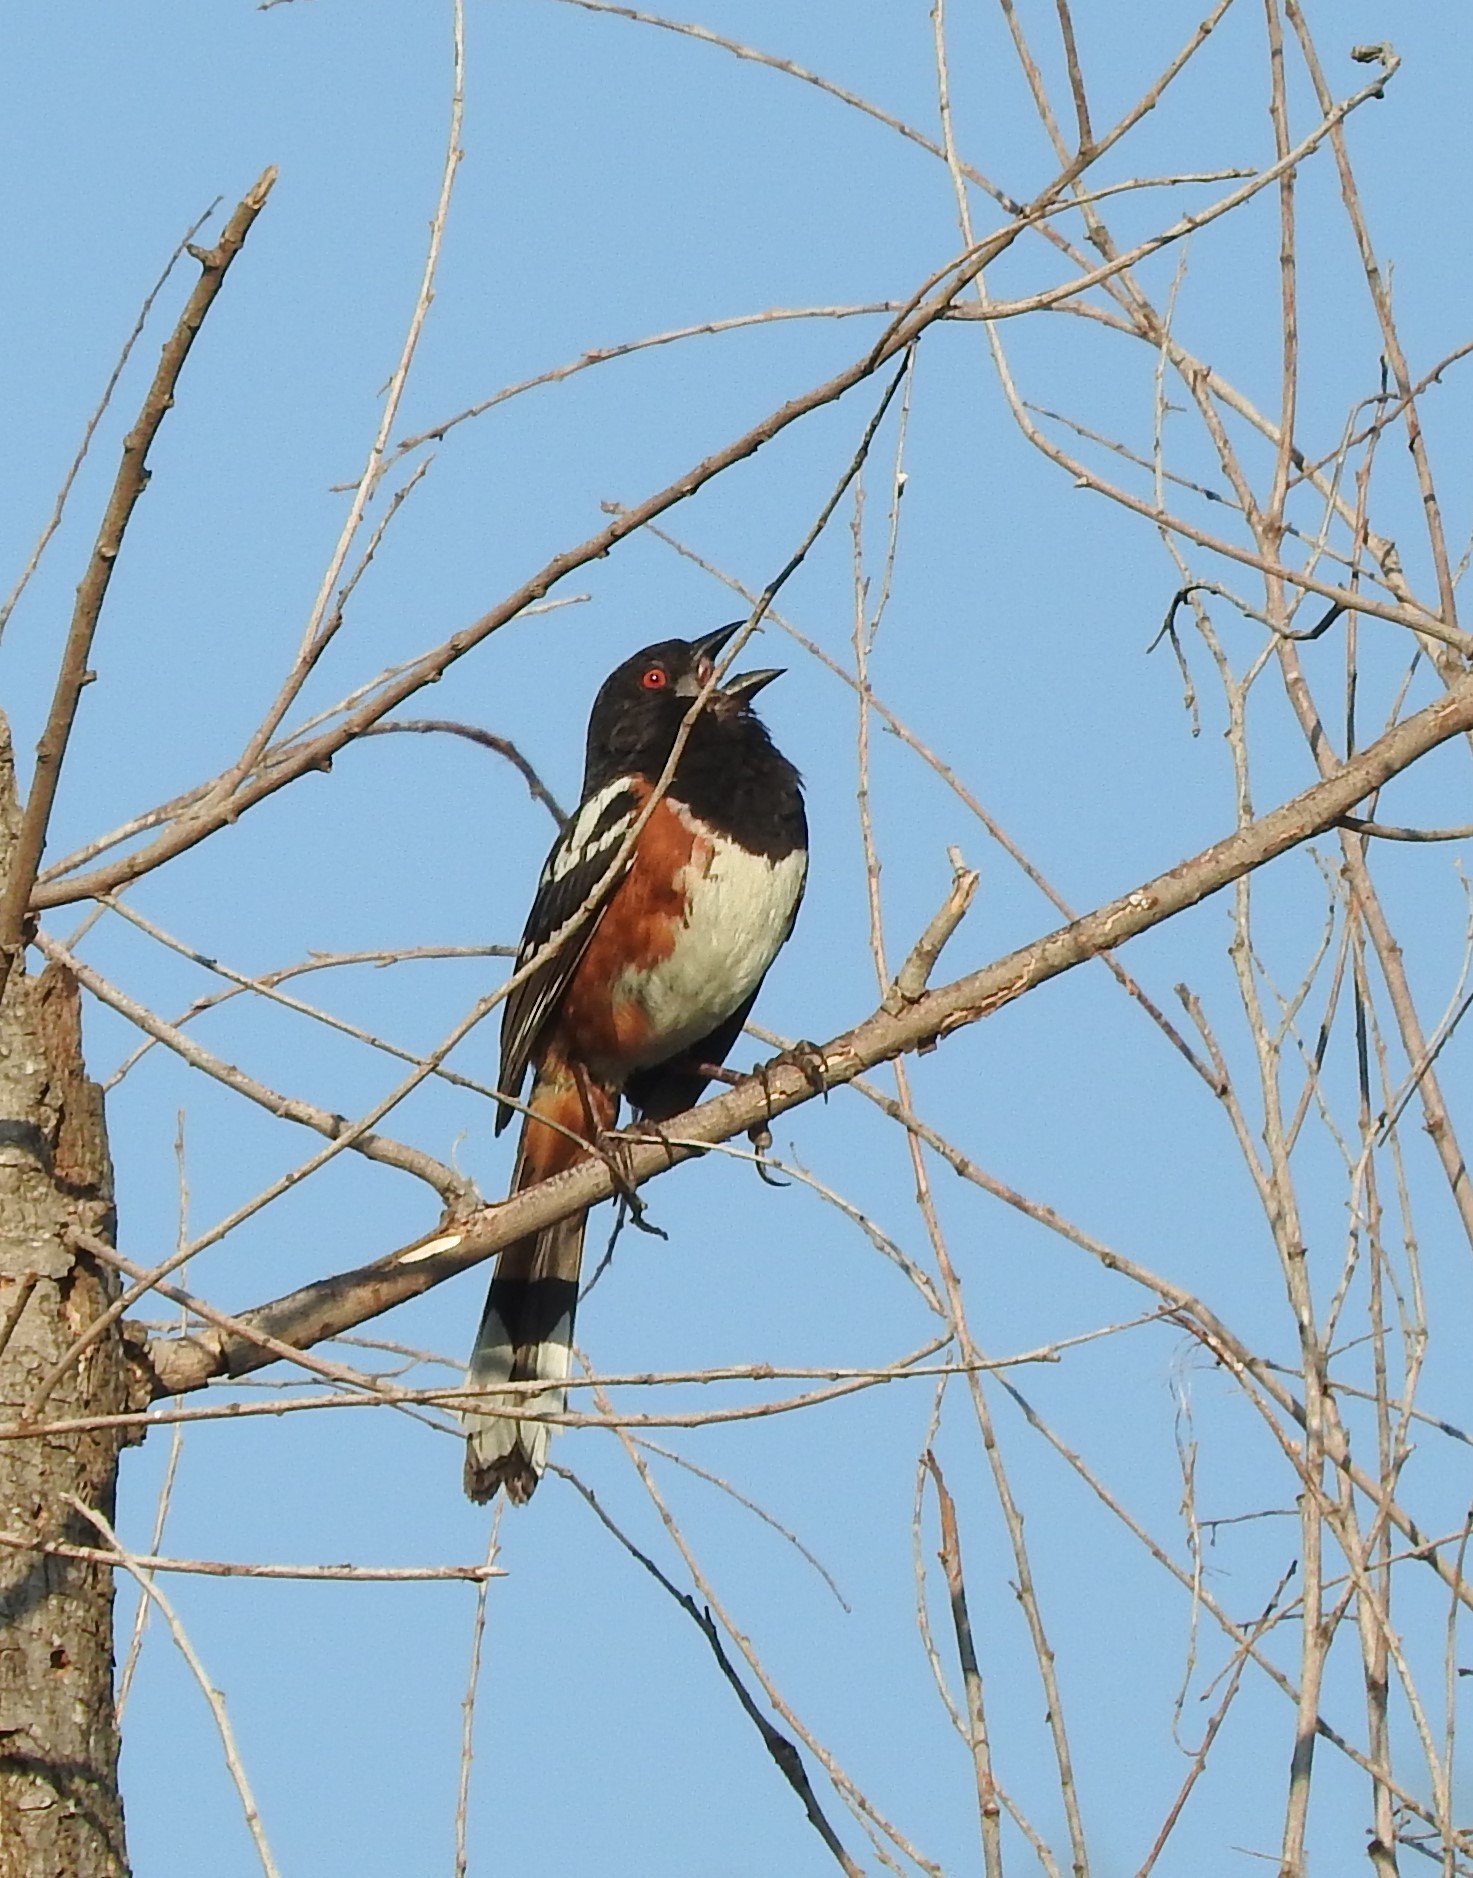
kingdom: Animalia
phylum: Chordata
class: Aves
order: Passeriformes
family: Passerellidae
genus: Pipilo
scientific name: Pipilo maculatus
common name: Spotted towhee
